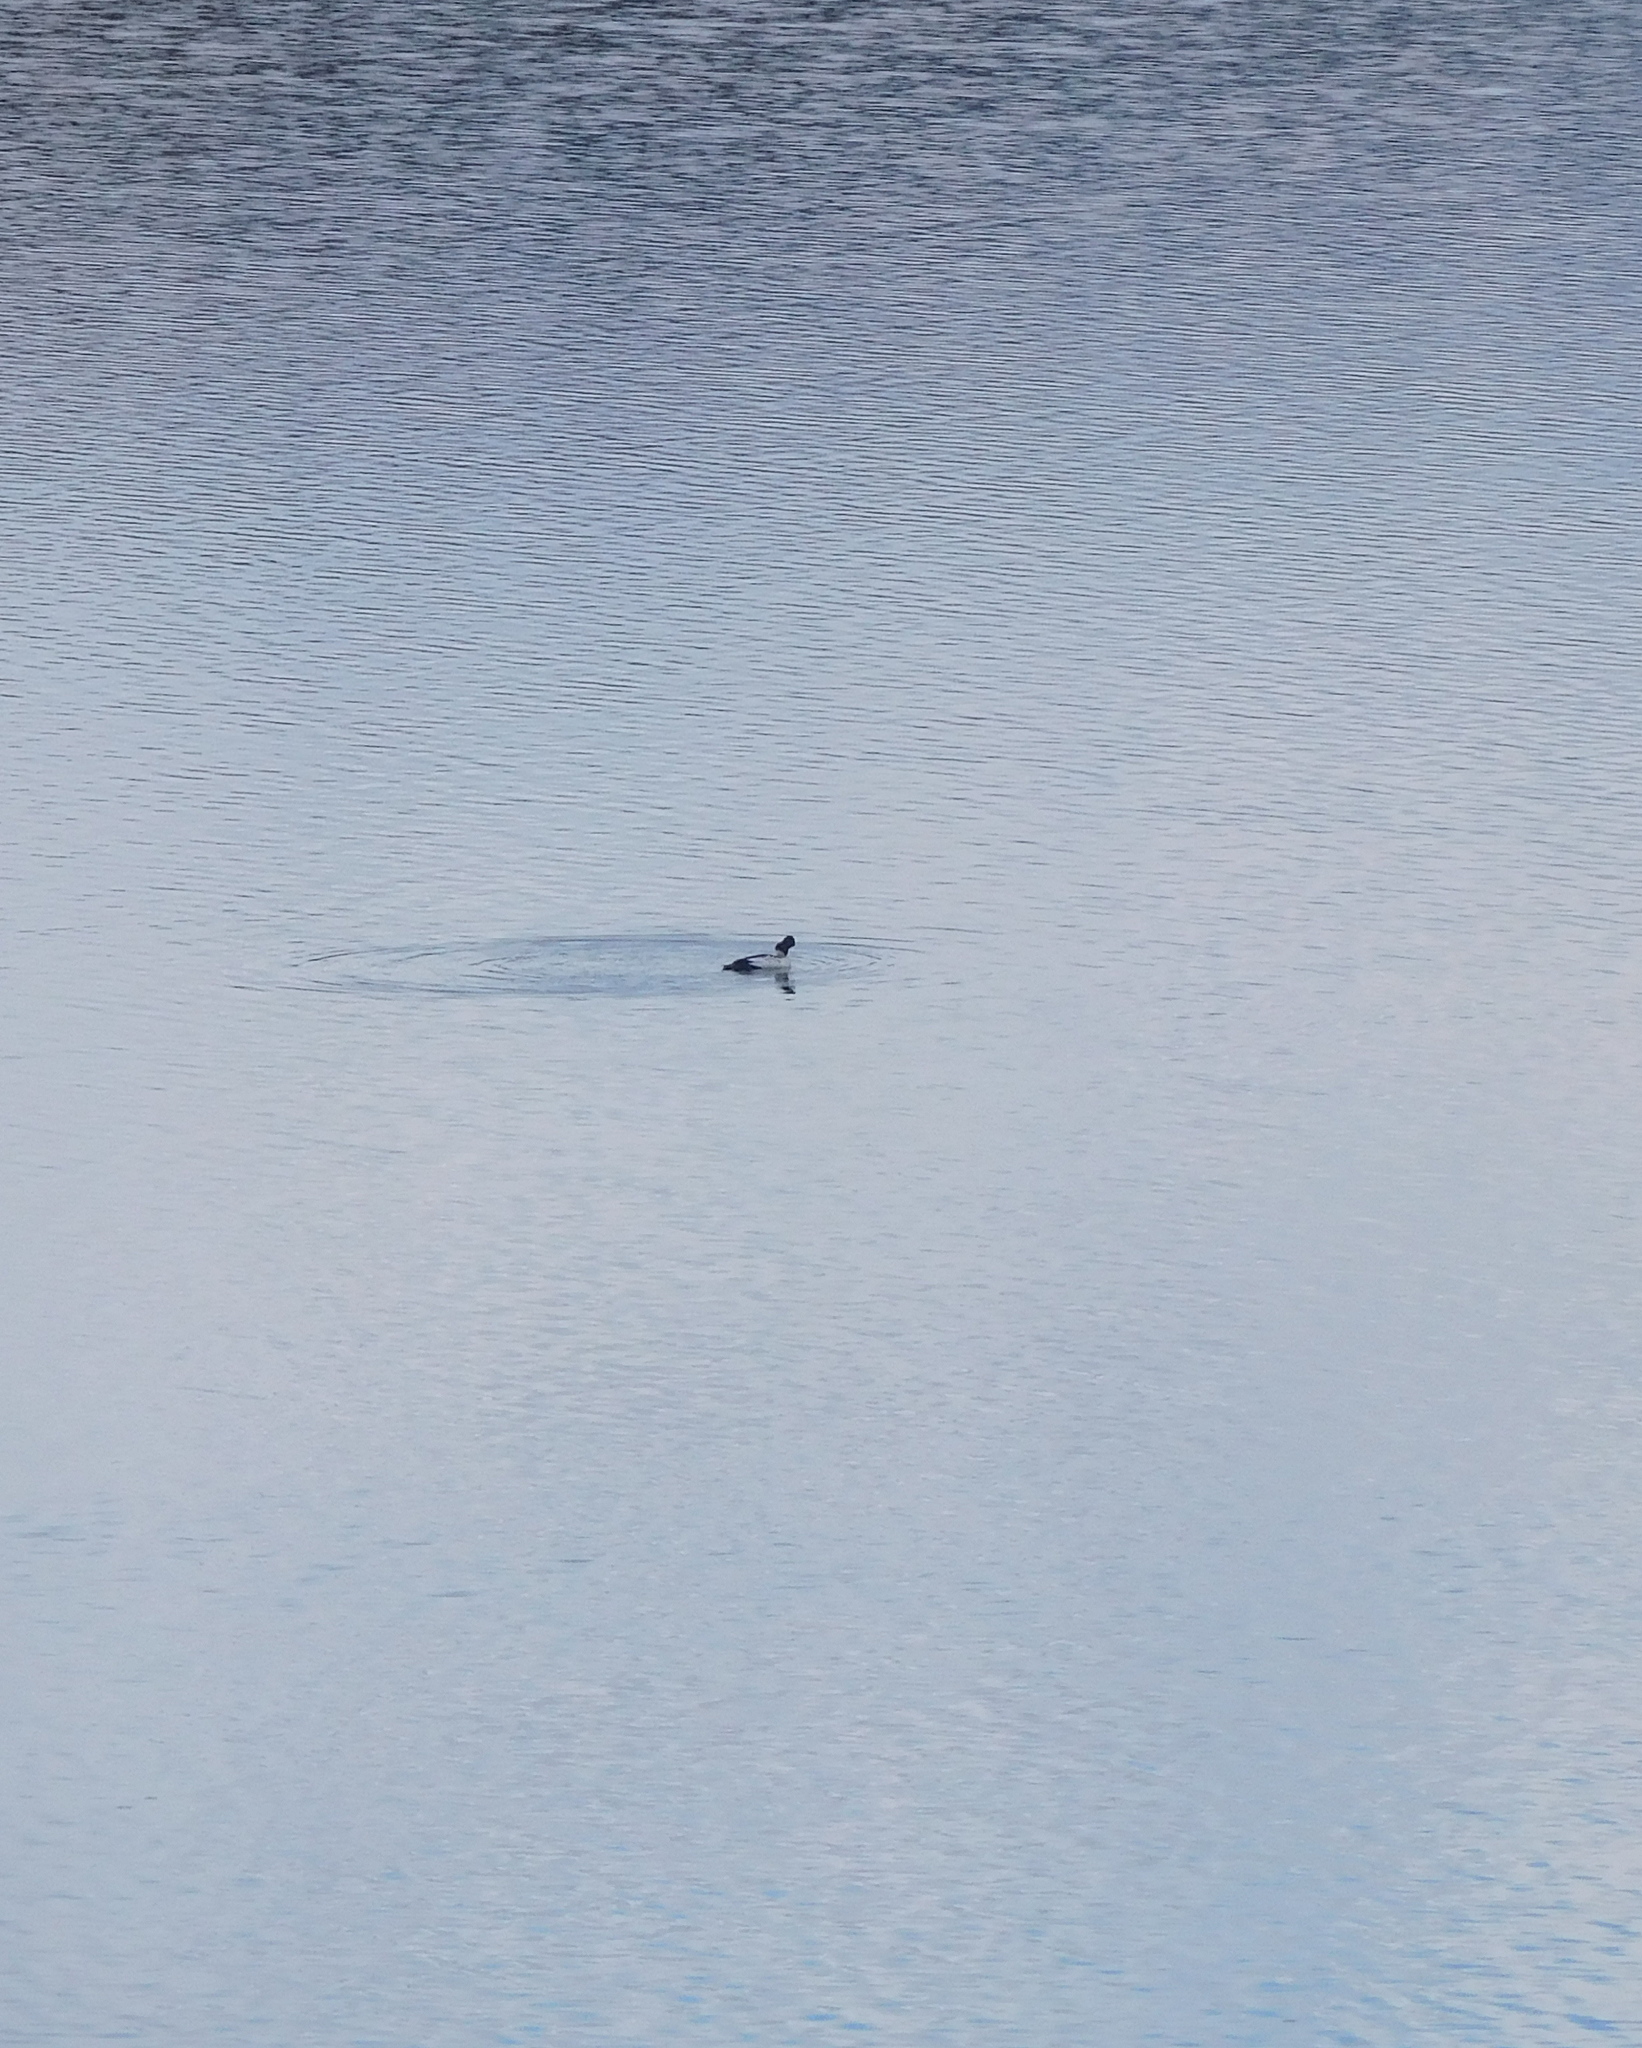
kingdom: Animalia
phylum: Chordata
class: Aves
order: Anseriformes
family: Anatidae
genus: Bucephala
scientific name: Bucephala clangula
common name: Common goldeneye
